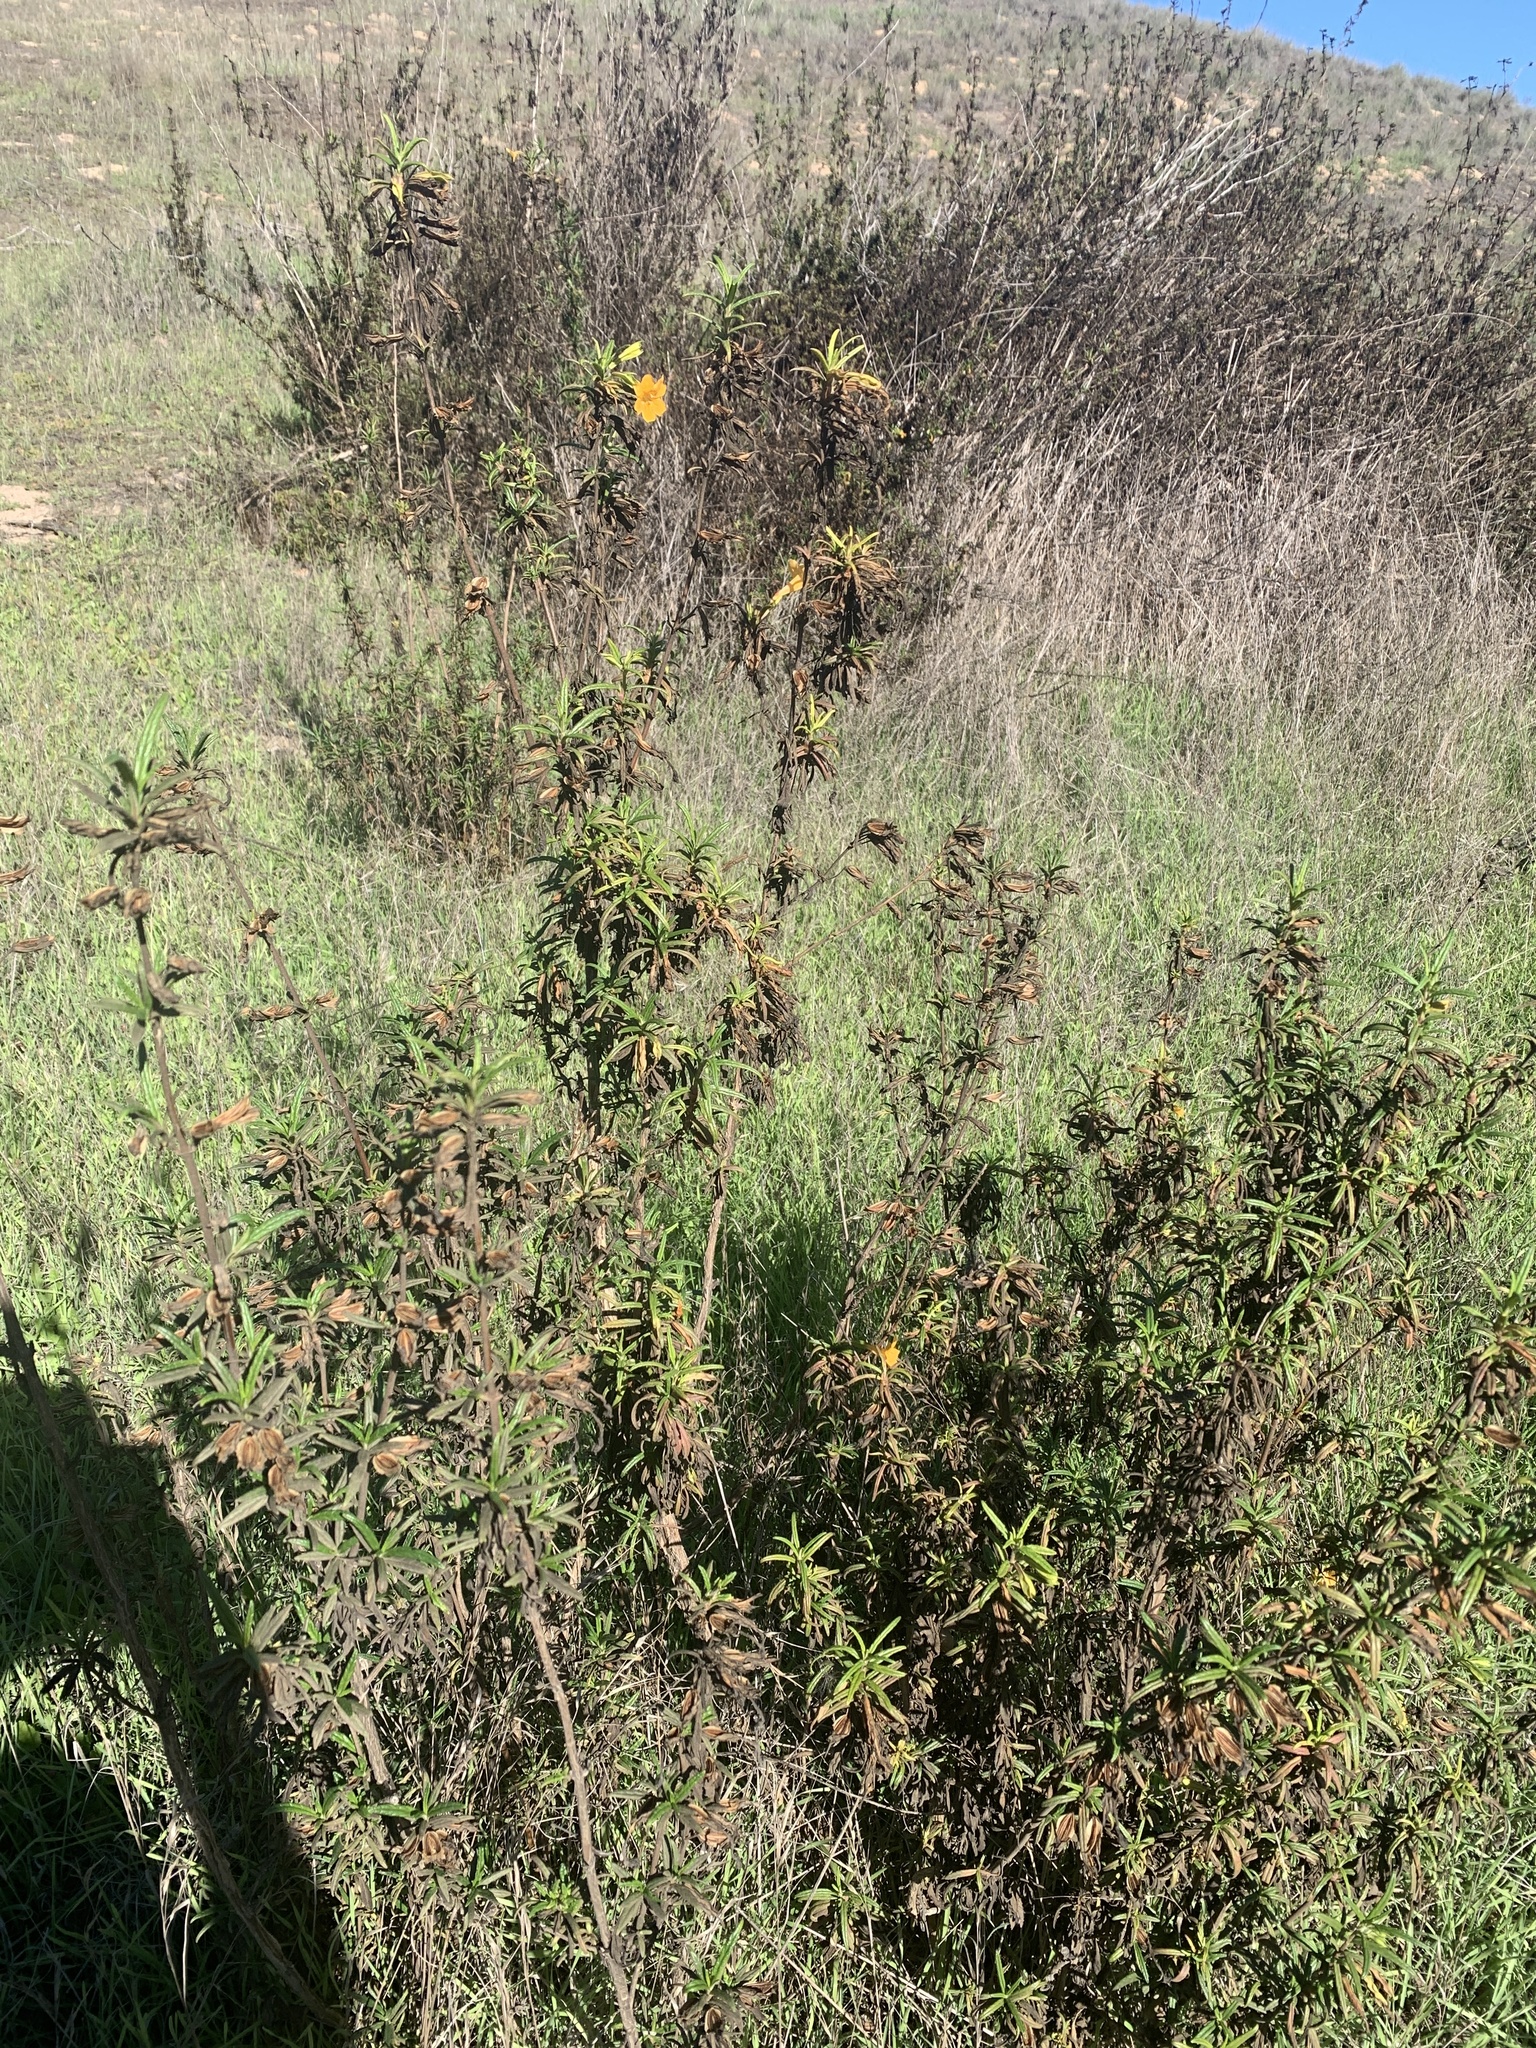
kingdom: Plantae
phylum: Tracheophyta
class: Magnoliopsida
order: Lamiales
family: Phrymaceae
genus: Diplacus
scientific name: Diplacus aurantiacus
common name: Bush monkey-flower
